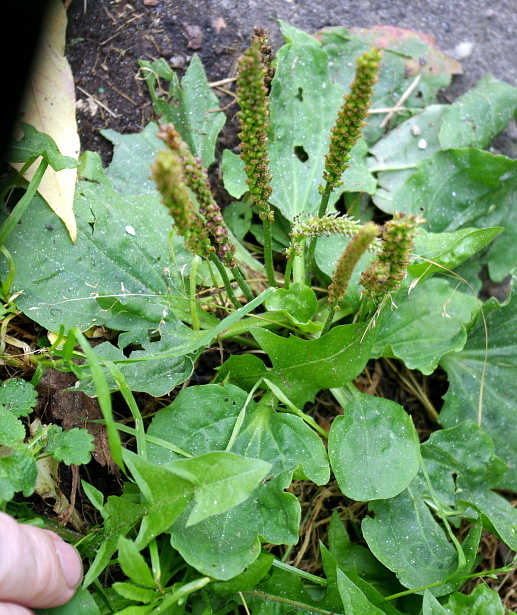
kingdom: Plantae
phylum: Tracheophyta
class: Magnoliopsida
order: Lamiales
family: Plantaginaceae
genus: Plantago
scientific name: Plantago major
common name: Common plantain
